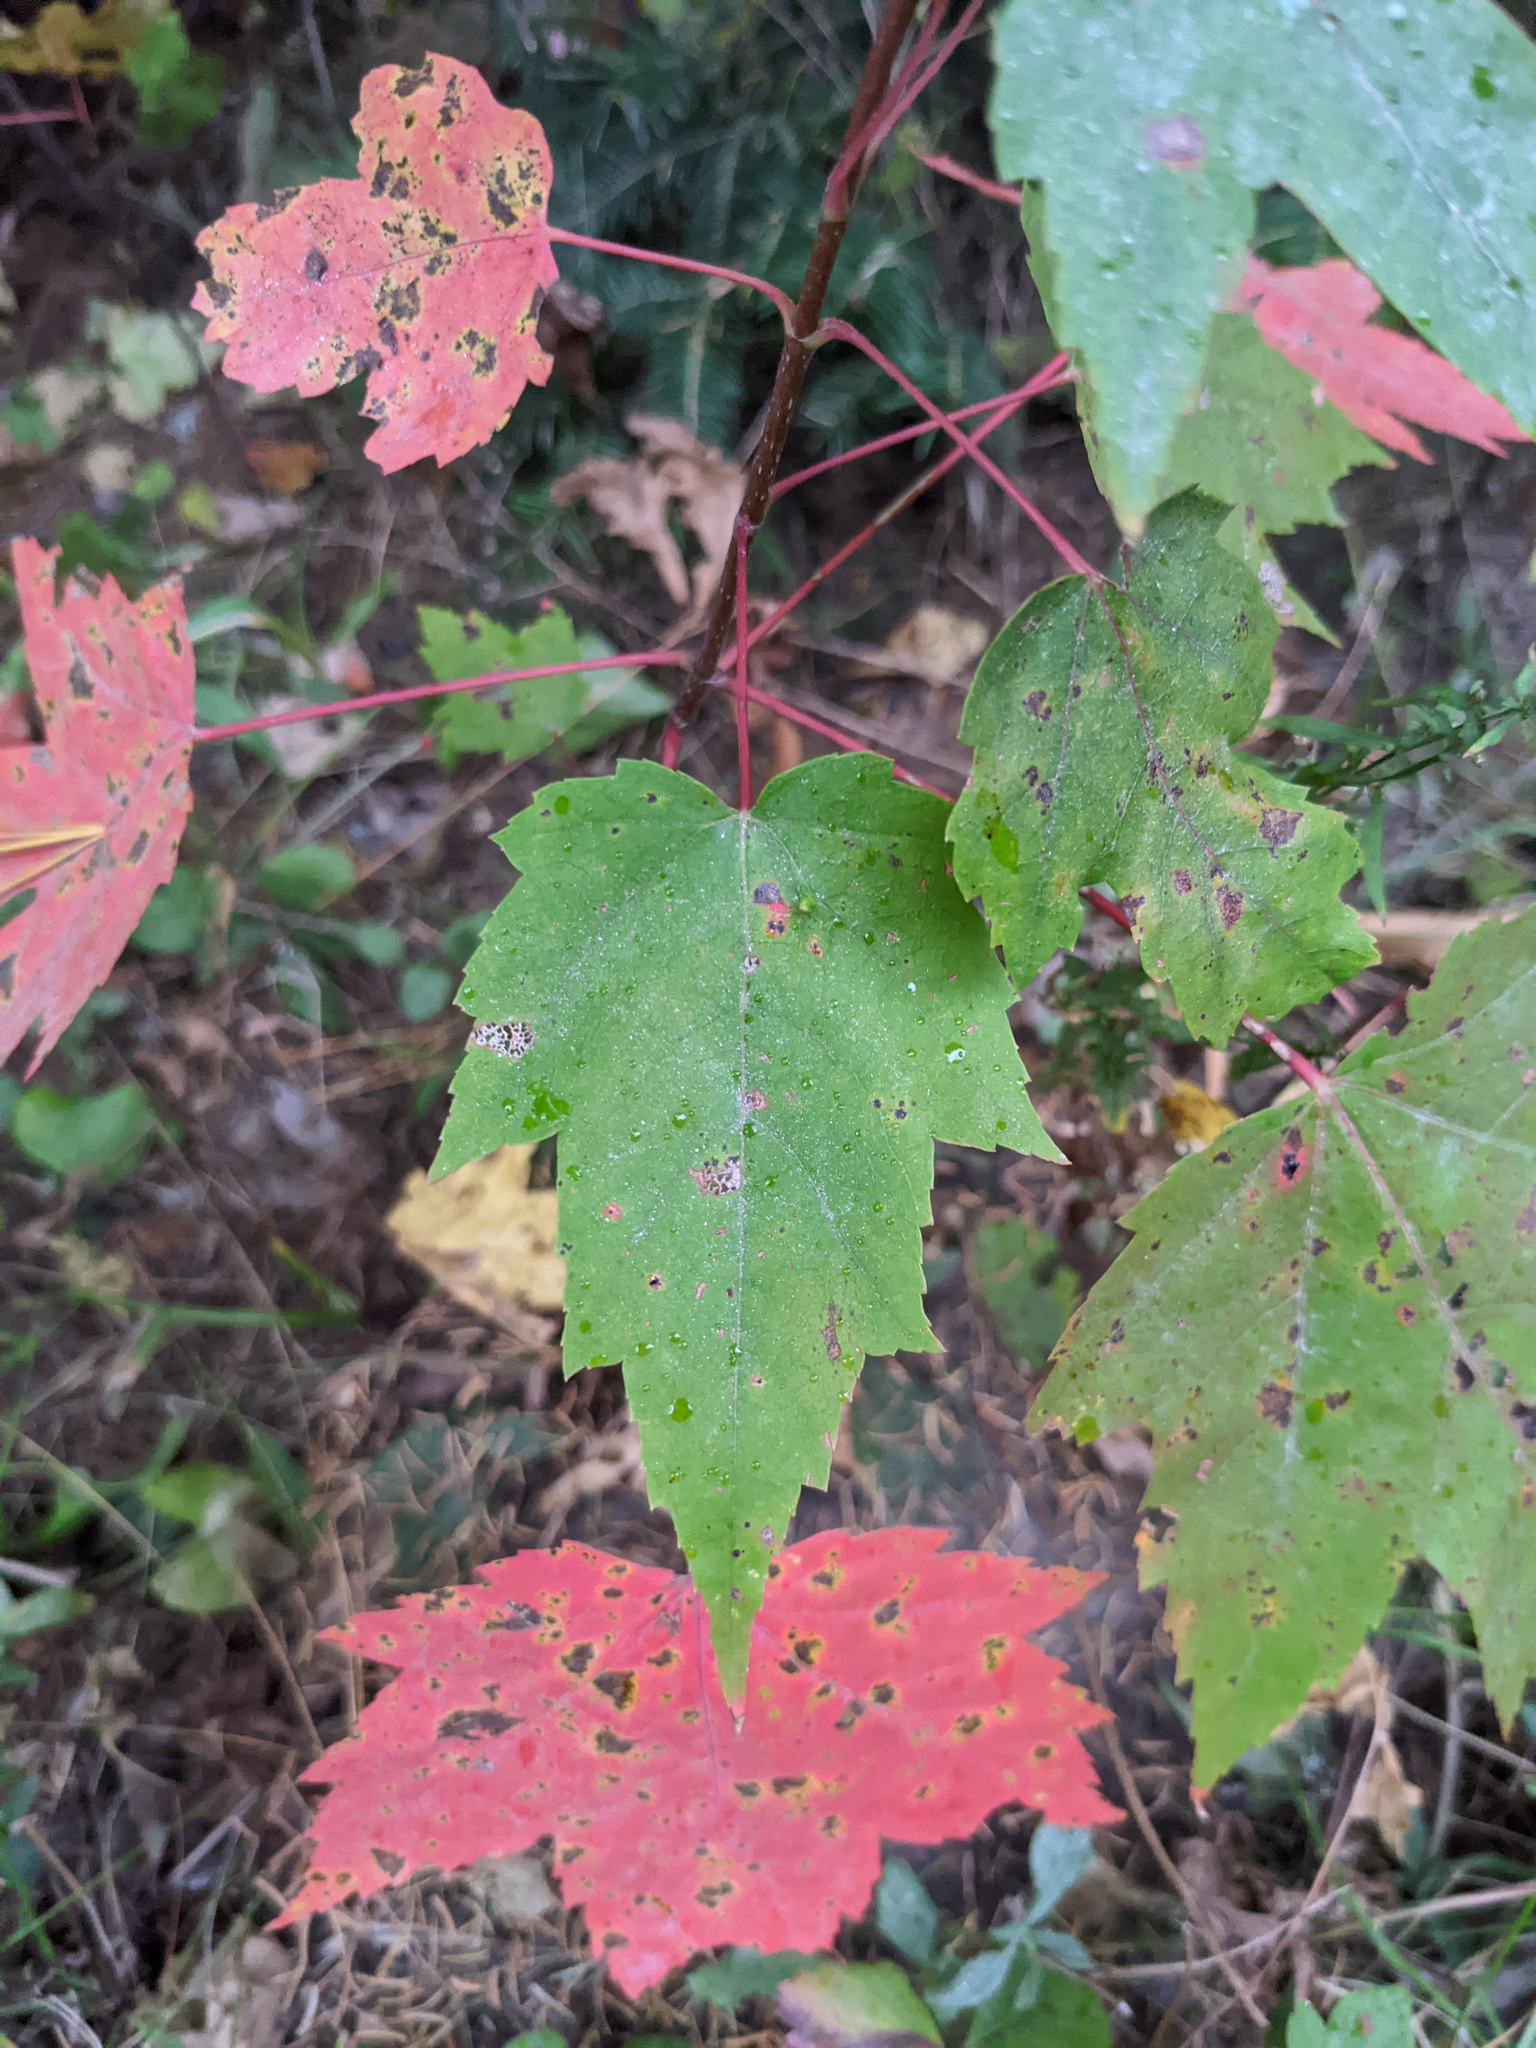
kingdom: Plantae
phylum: Tracheophyta
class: Magnoliopsida
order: Sapindales
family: Sapindaceae
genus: Acer
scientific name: Acer rubrum
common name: Red maple
